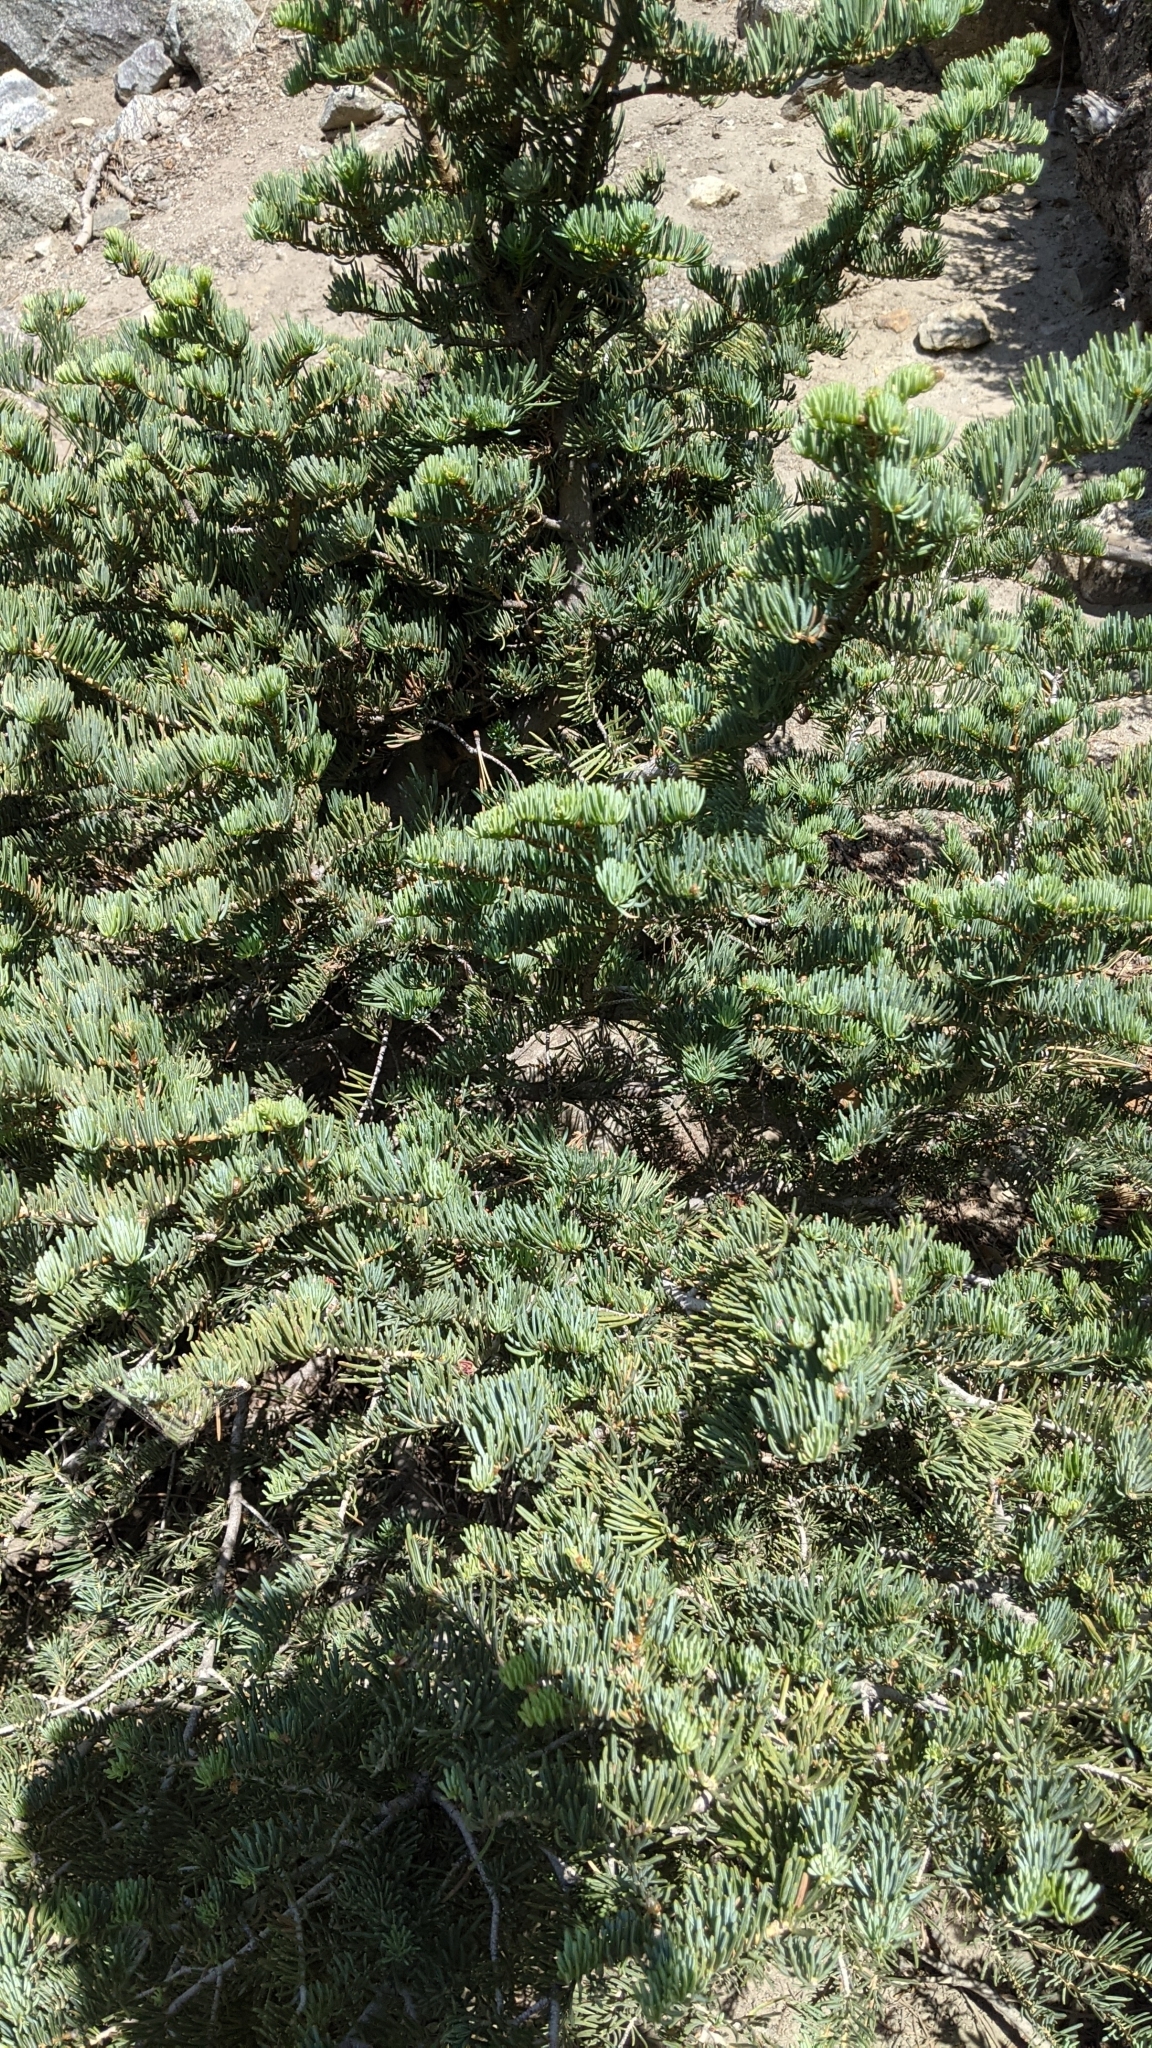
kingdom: Plantae
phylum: Tracheophyta
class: Pinopsida
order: Pinales
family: Pinaceae
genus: Abies
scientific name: Abies concolor
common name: Colorado fir
